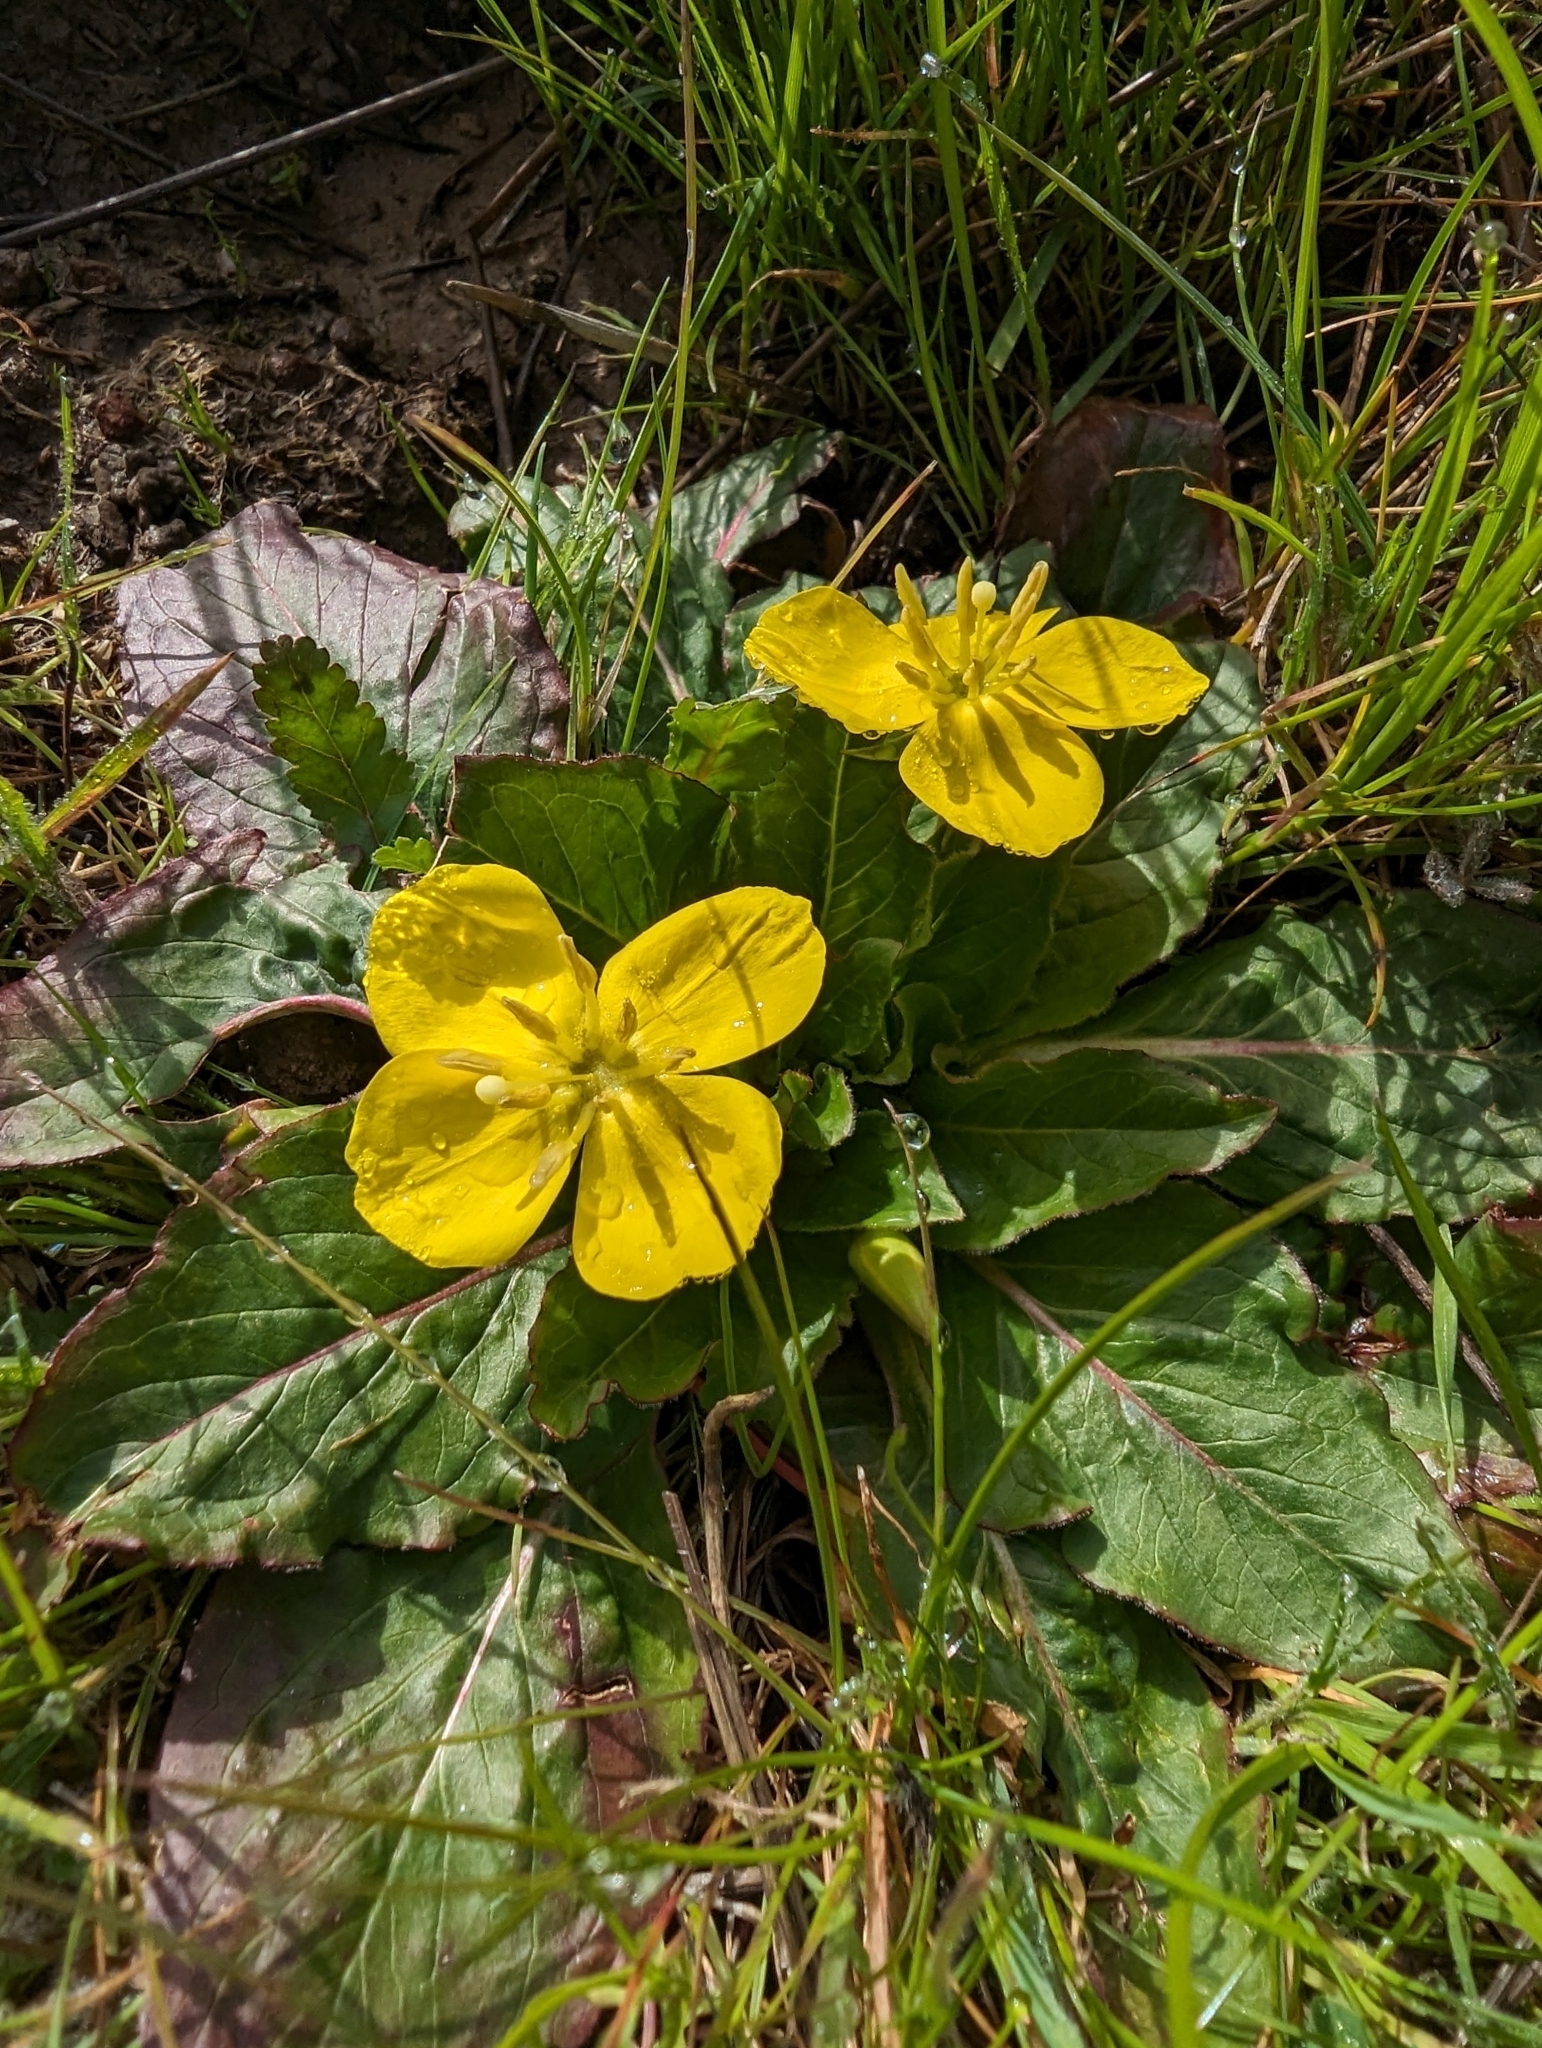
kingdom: Plantae
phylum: Tracheophyta
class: Magnoliopsida
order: Myrtales
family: Onagraceae
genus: Taraxia
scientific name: Taraxia ovata
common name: Goldeneggs
